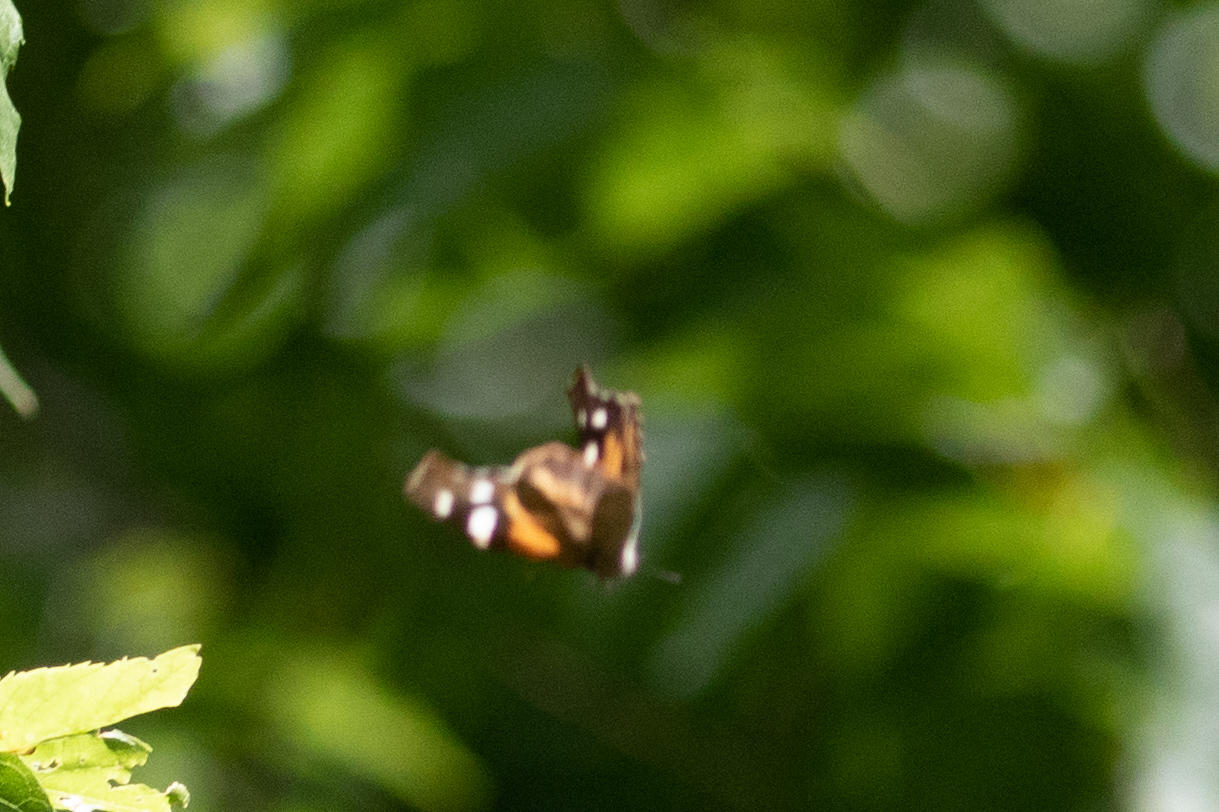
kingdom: Animalia
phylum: Arthropoda
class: Insecta
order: Lepidoptera
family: Nymphalidae
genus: Libytheana
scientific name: Libytheana carinenta
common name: American snout
